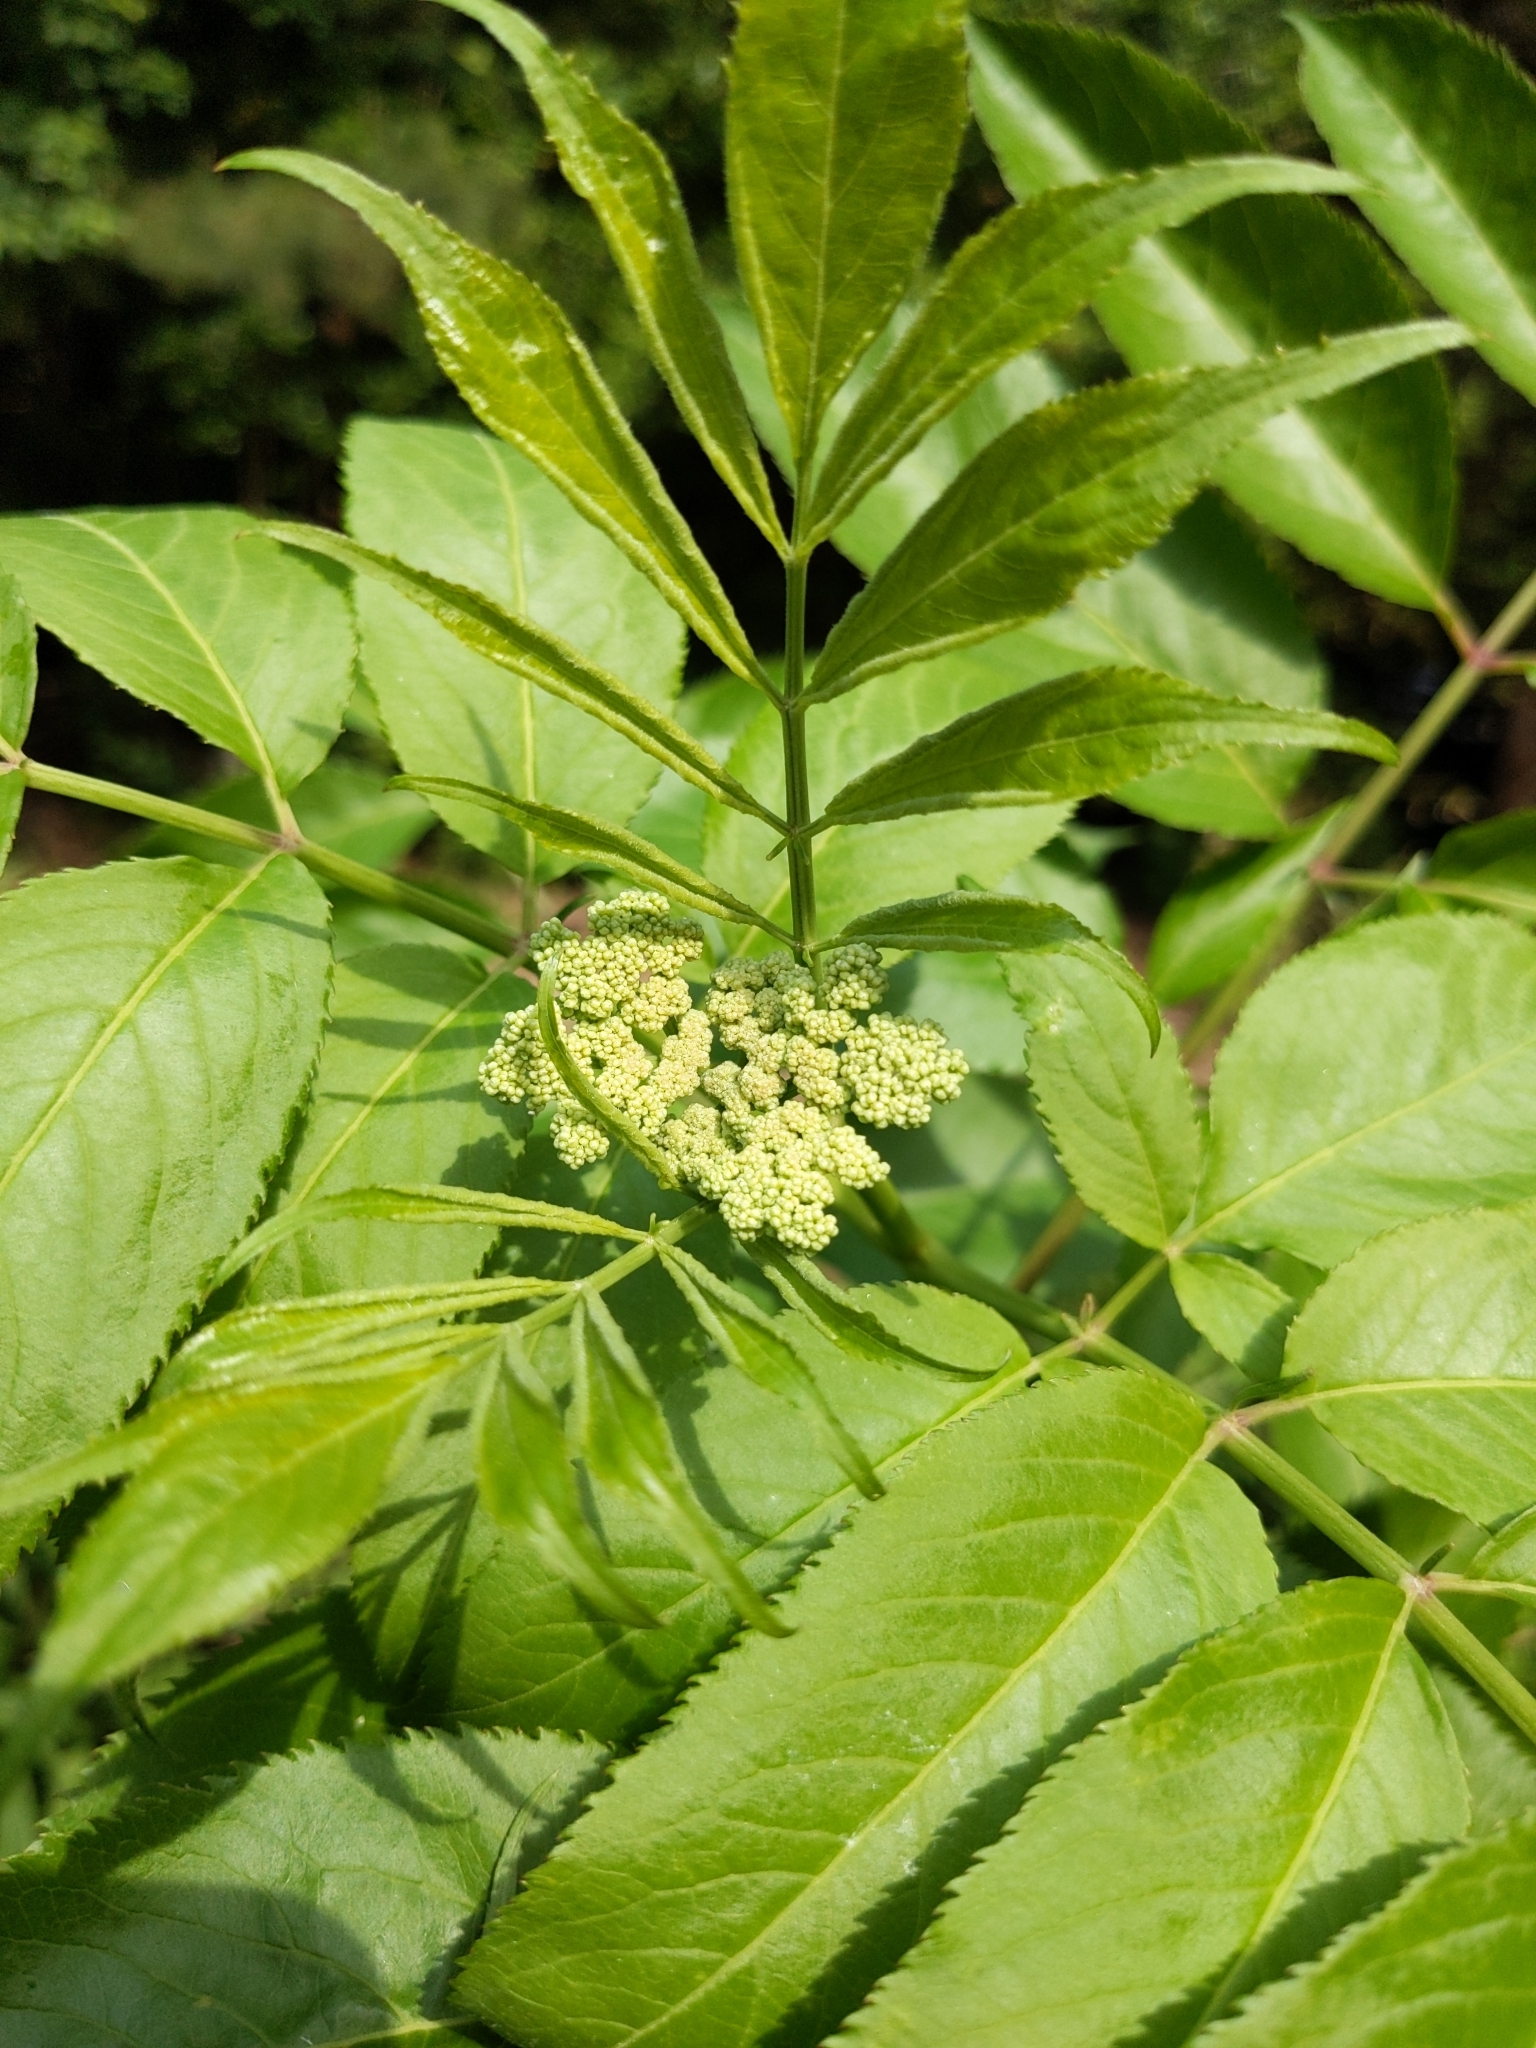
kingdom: Plantae
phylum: Tracheophyta
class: Magnoliopsida
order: Dipsacales
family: Viburnaceae
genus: Sambucus
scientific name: Sambucus canadensis
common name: American elder
